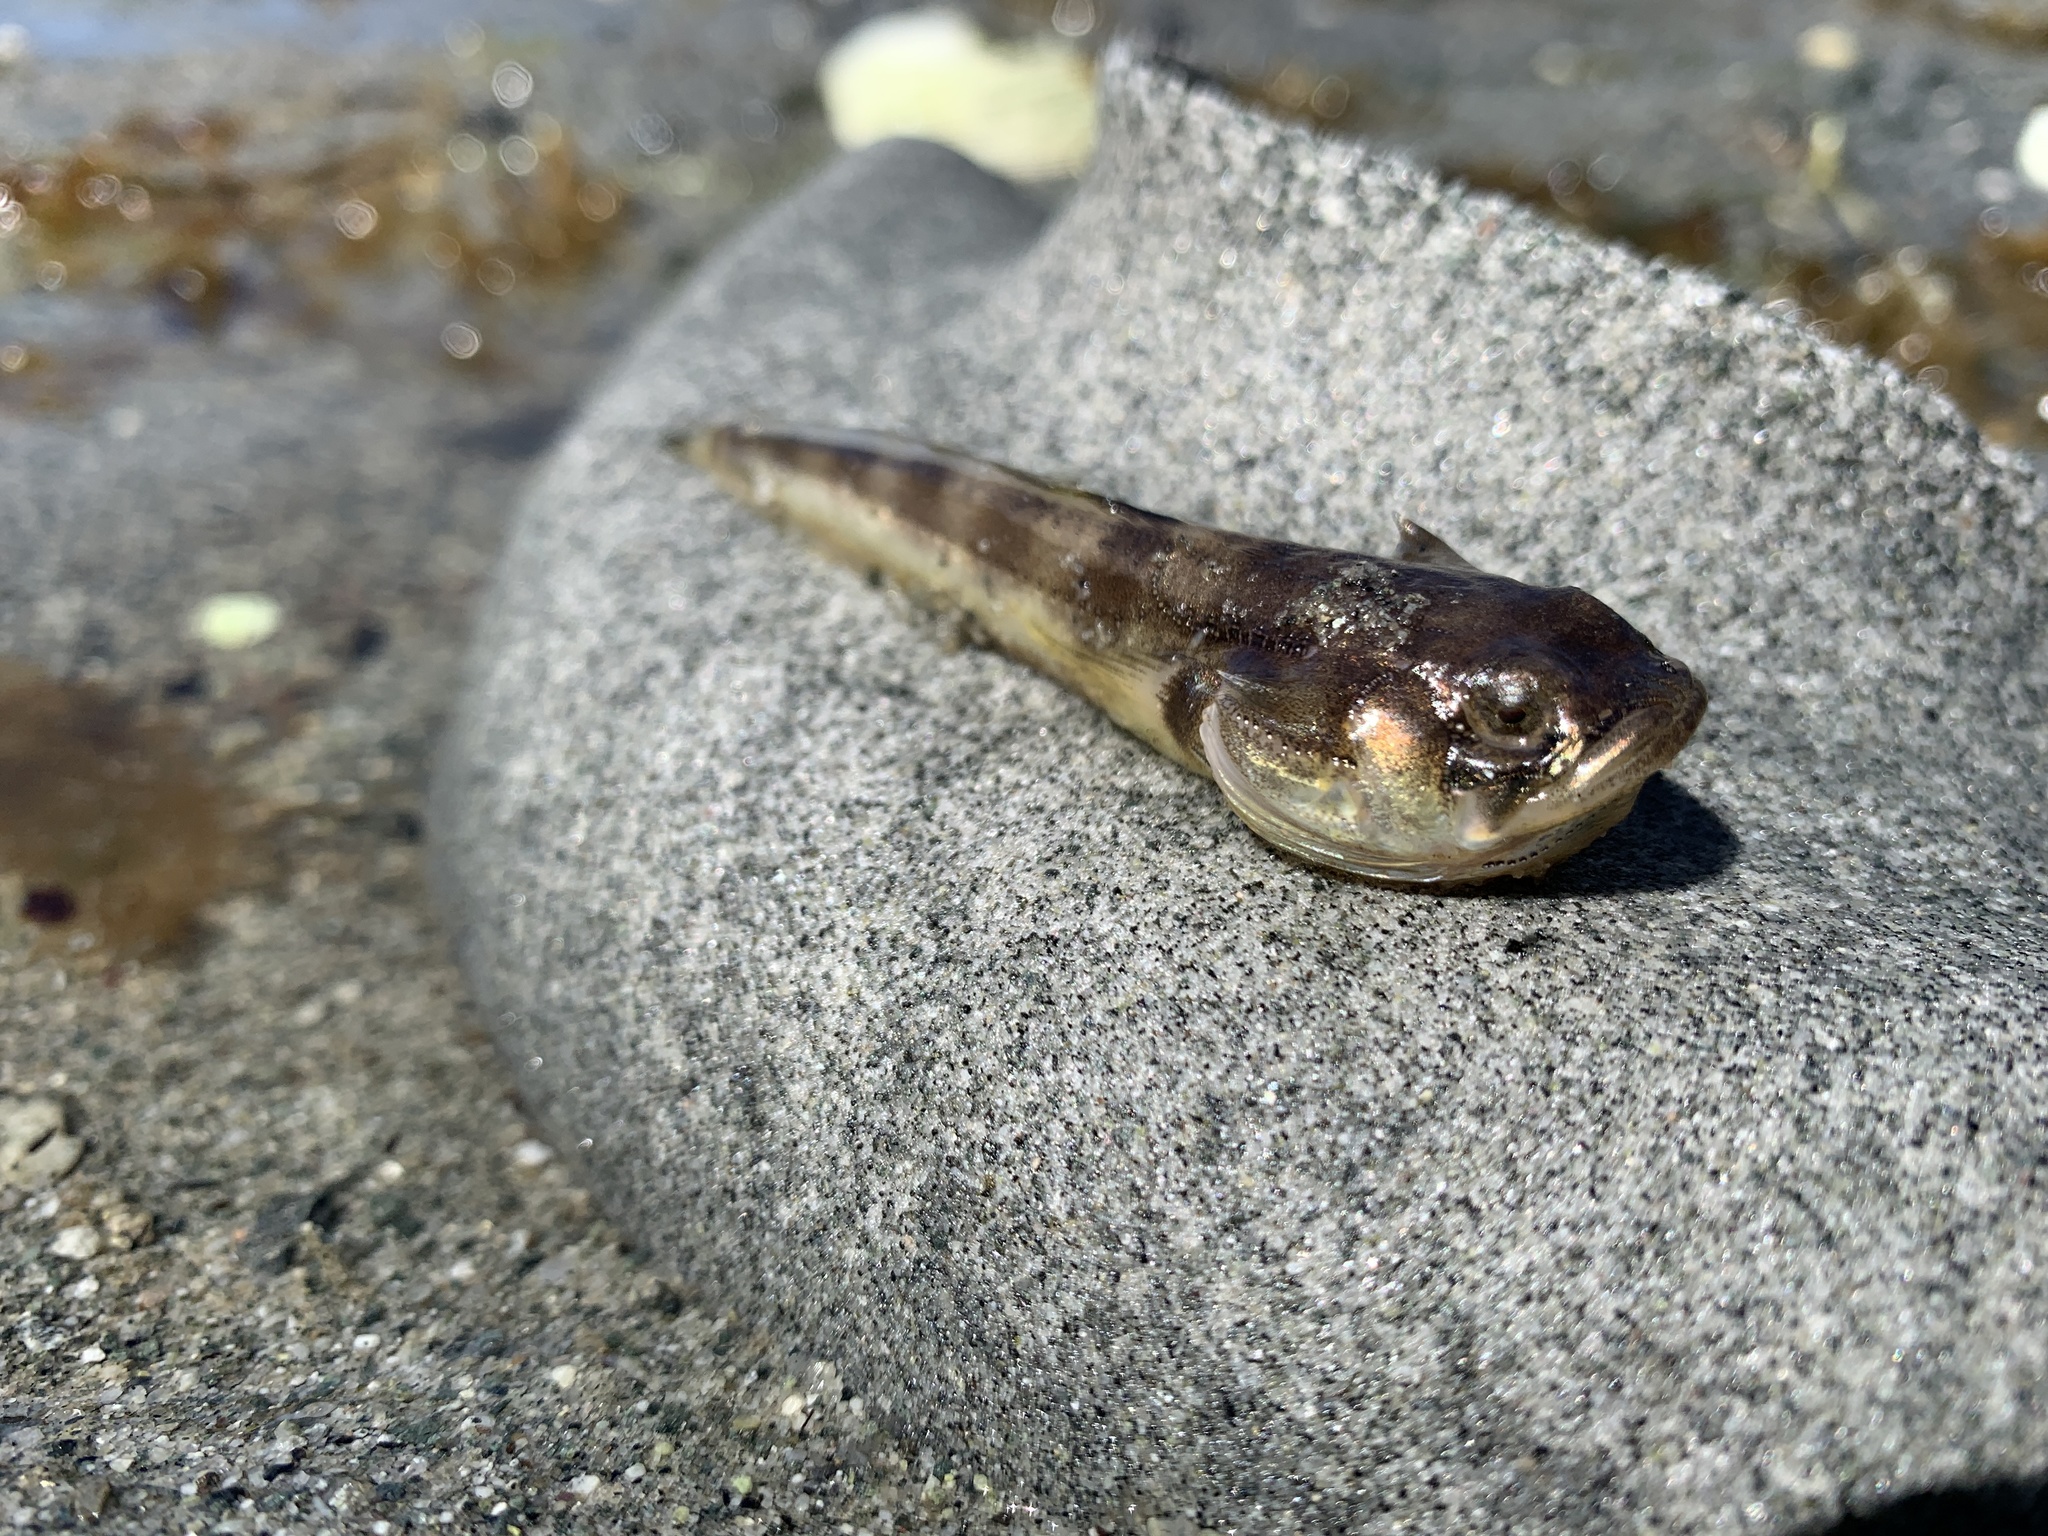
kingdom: Animalia
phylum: Chordata
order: Batrachoidiformes
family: Batrachoididae
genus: Porichthys
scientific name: Porichthys notatus
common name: Plainfin midshipman
